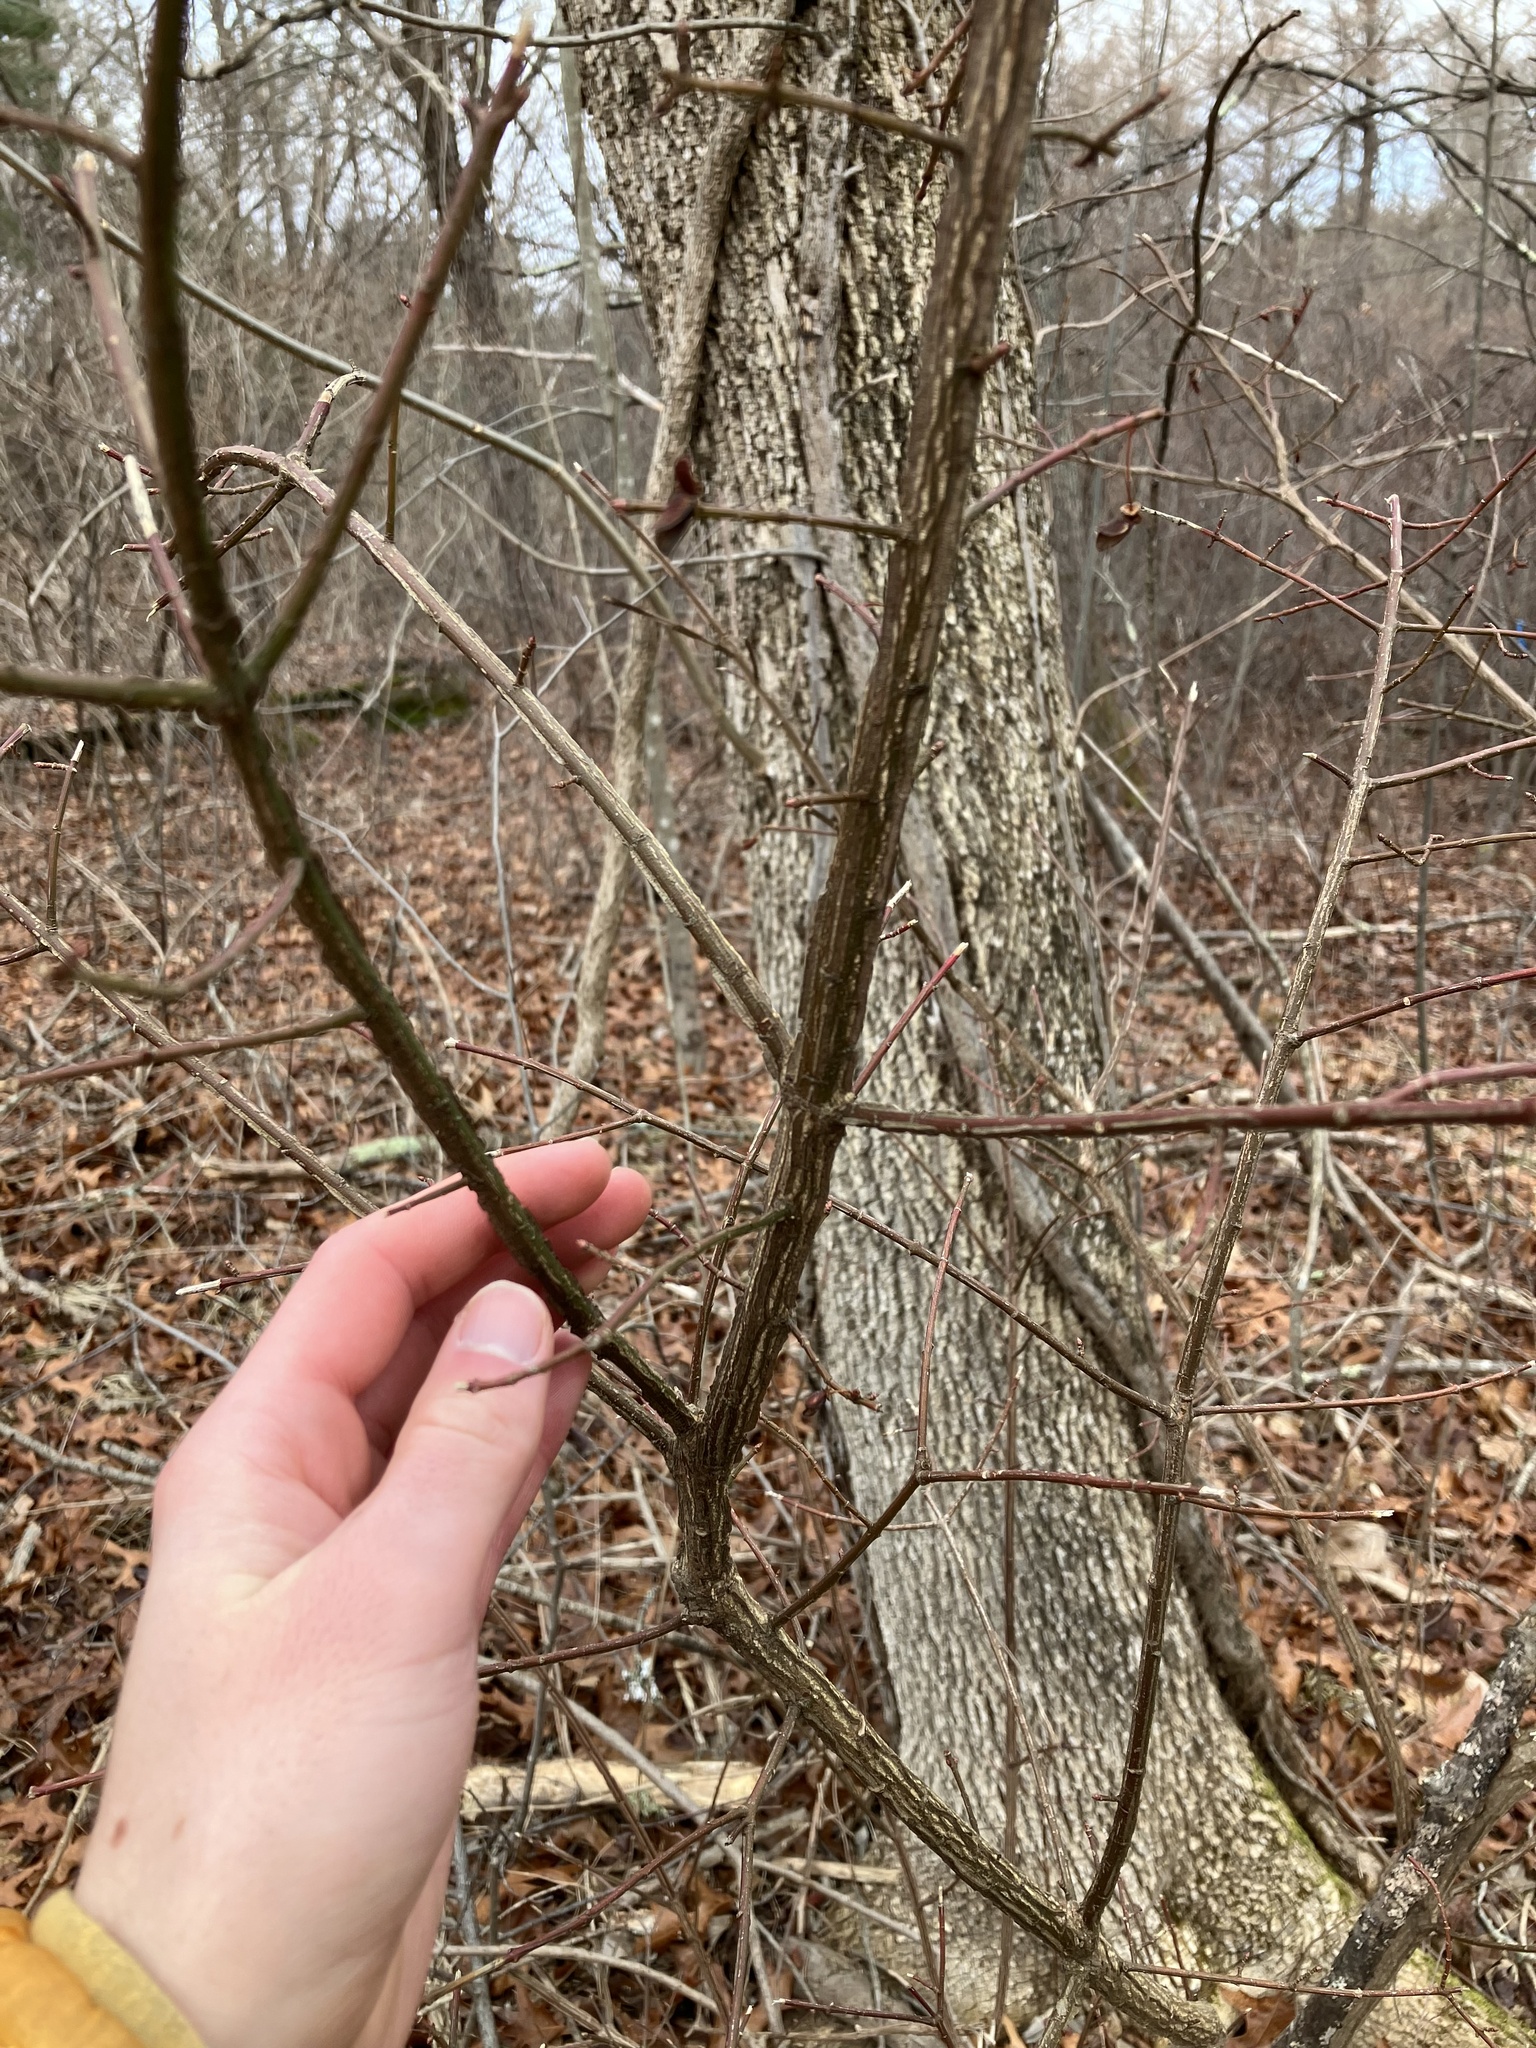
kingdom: Plantae
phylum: Tracheophyta
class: Magnoliopsida
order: Celastrales
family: Celastraceae
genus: Euonymus
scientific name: Euonymus alatus
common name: Winged euonymus
